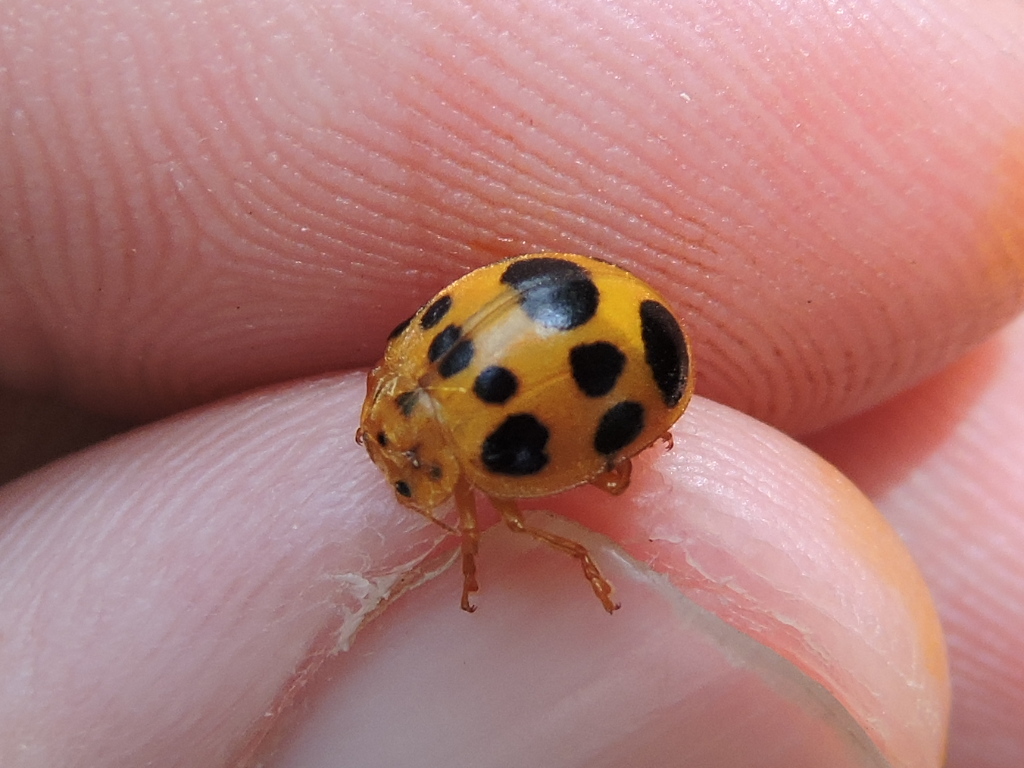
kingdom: Animalia
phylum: Arthropoda
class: Insecta
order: Coleoptera
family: Coccinellidae
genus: Epilachna
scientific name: Epilachna borealis
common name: Squash beetle
